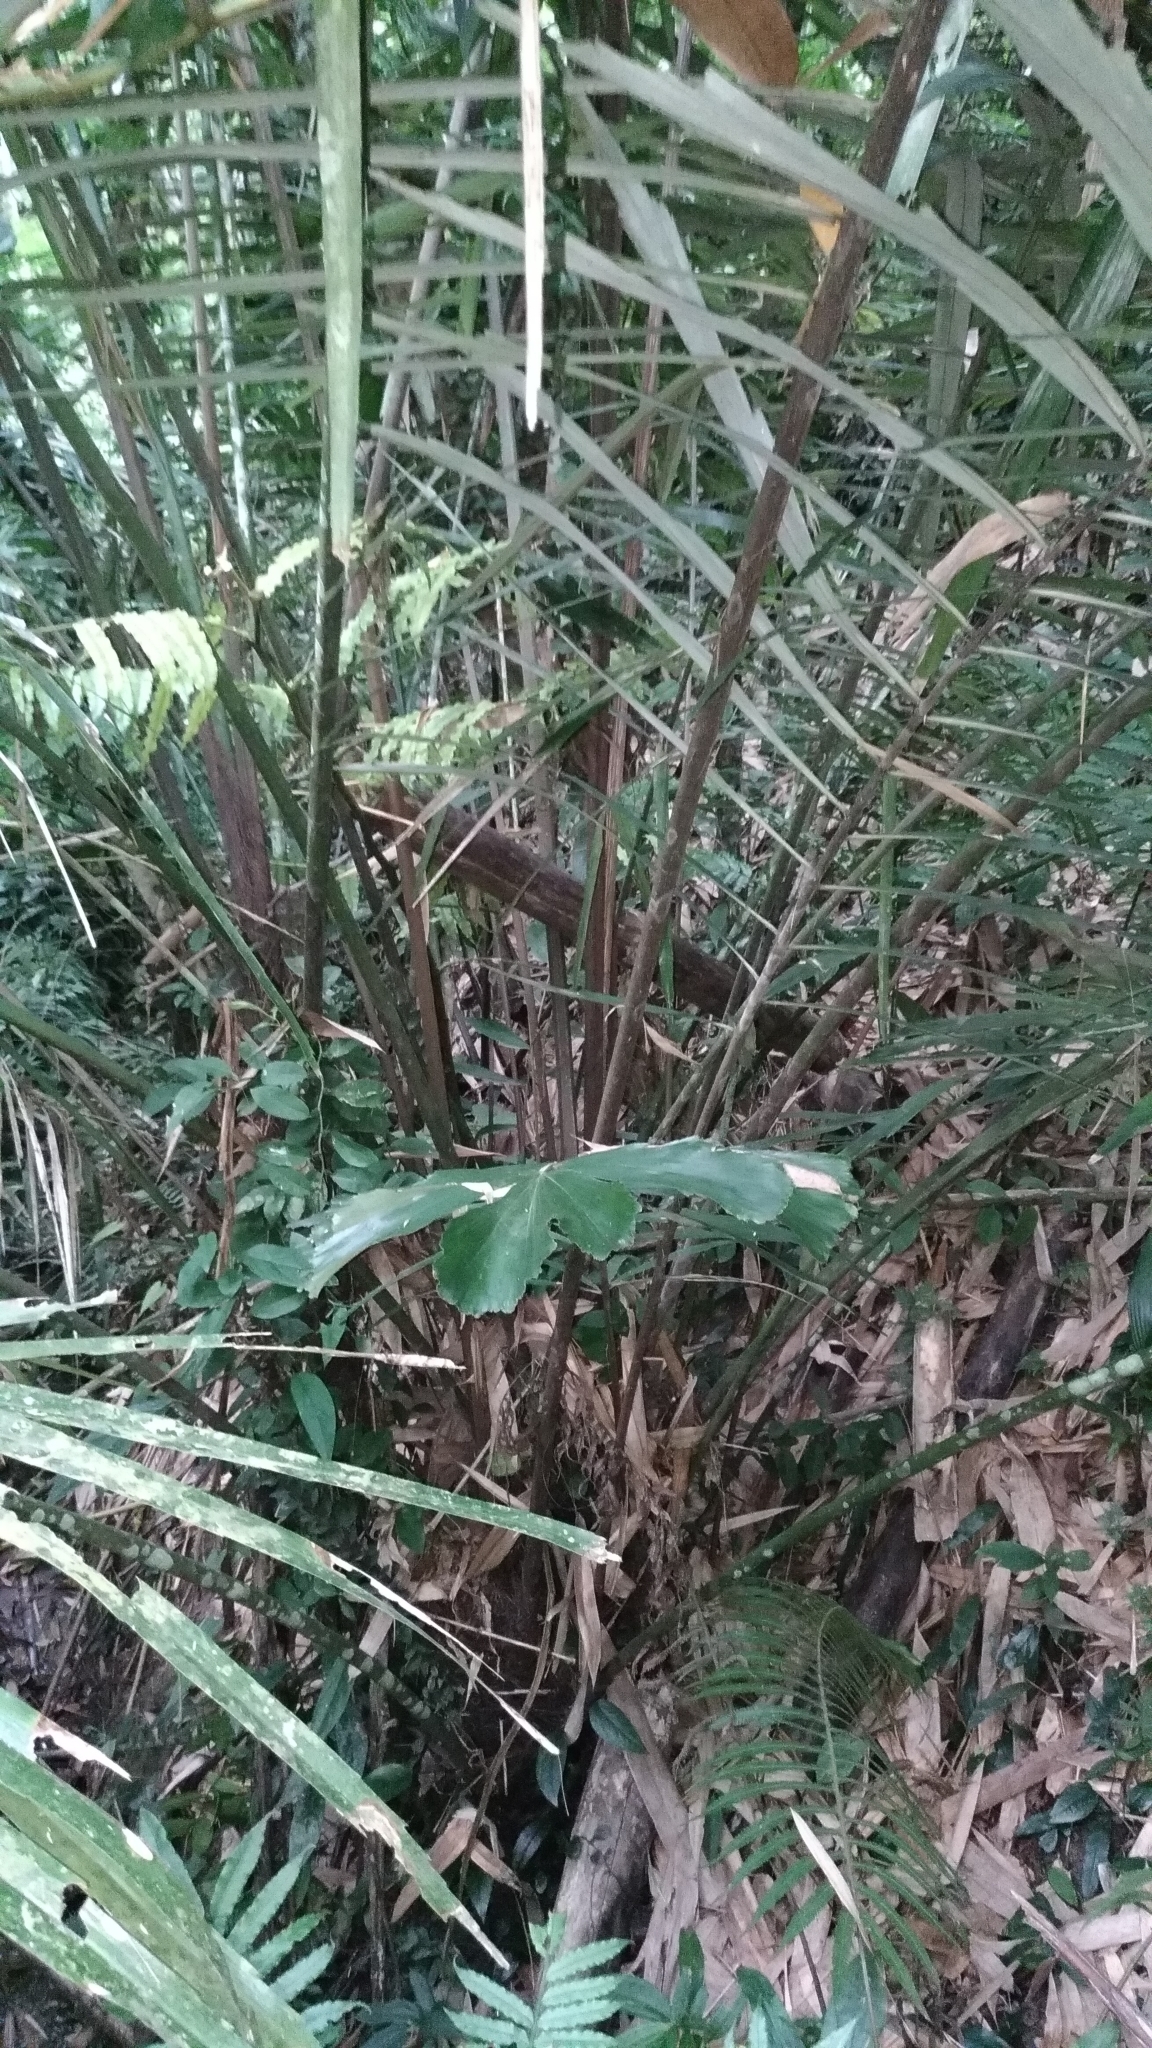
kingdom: Plantae
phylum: Tracheophyta
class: Liliopsida
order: Arecales
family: Arecaceae
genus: Arenga
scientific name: Arenga engleri
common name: Formosan sugar palm
